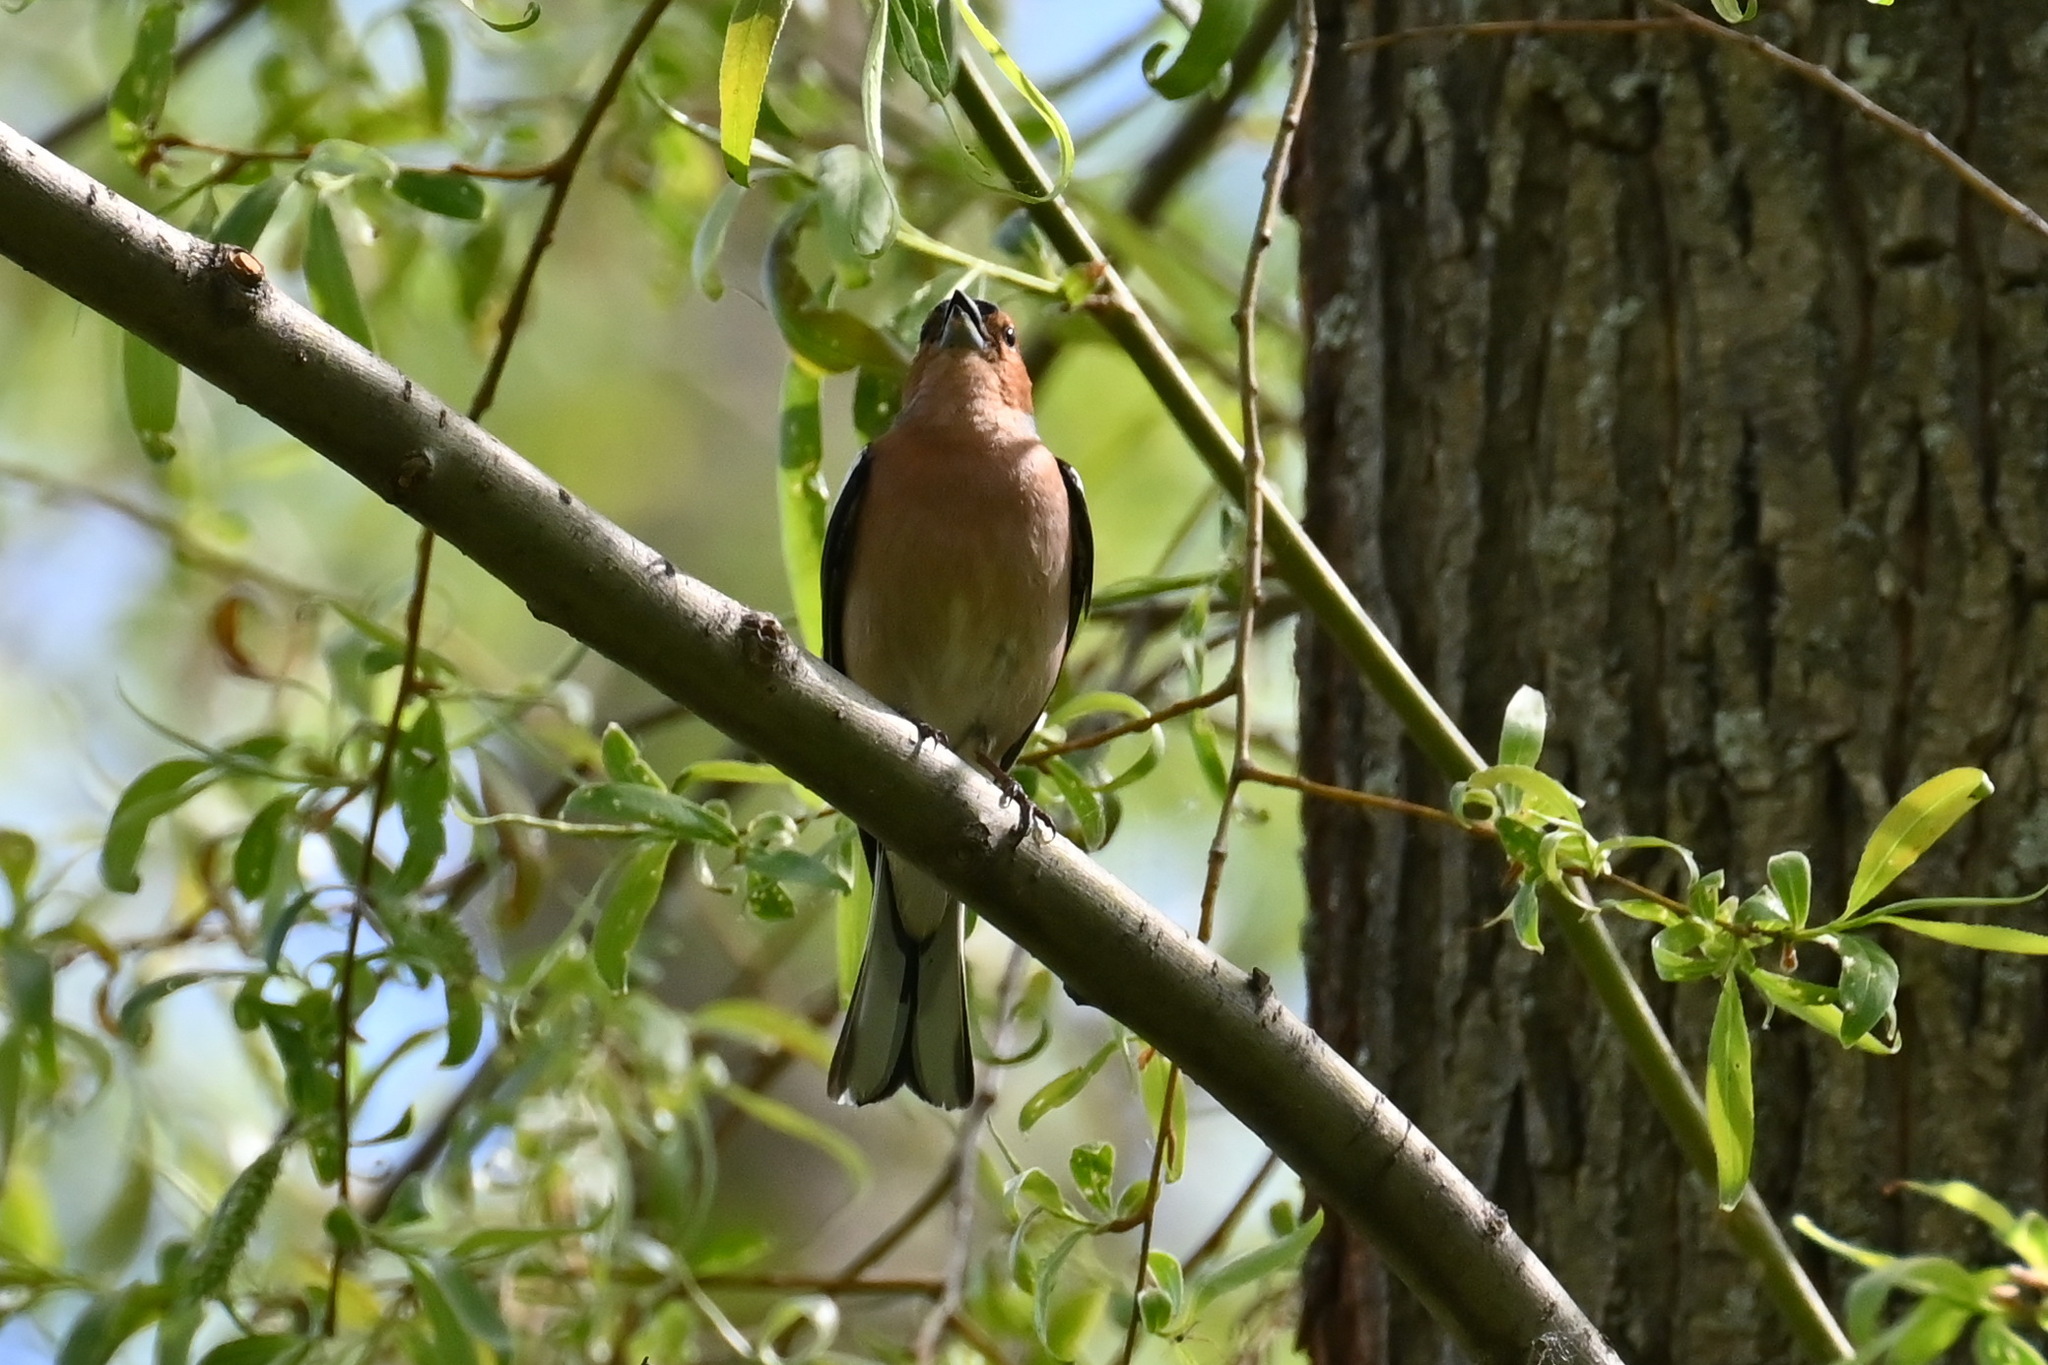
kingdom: Animalia
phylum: Chordata
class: Aves
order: Passeriformes
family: Fringillidae
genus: Fringilla
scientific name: Fringilla coelebs
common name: Common chaffinch
